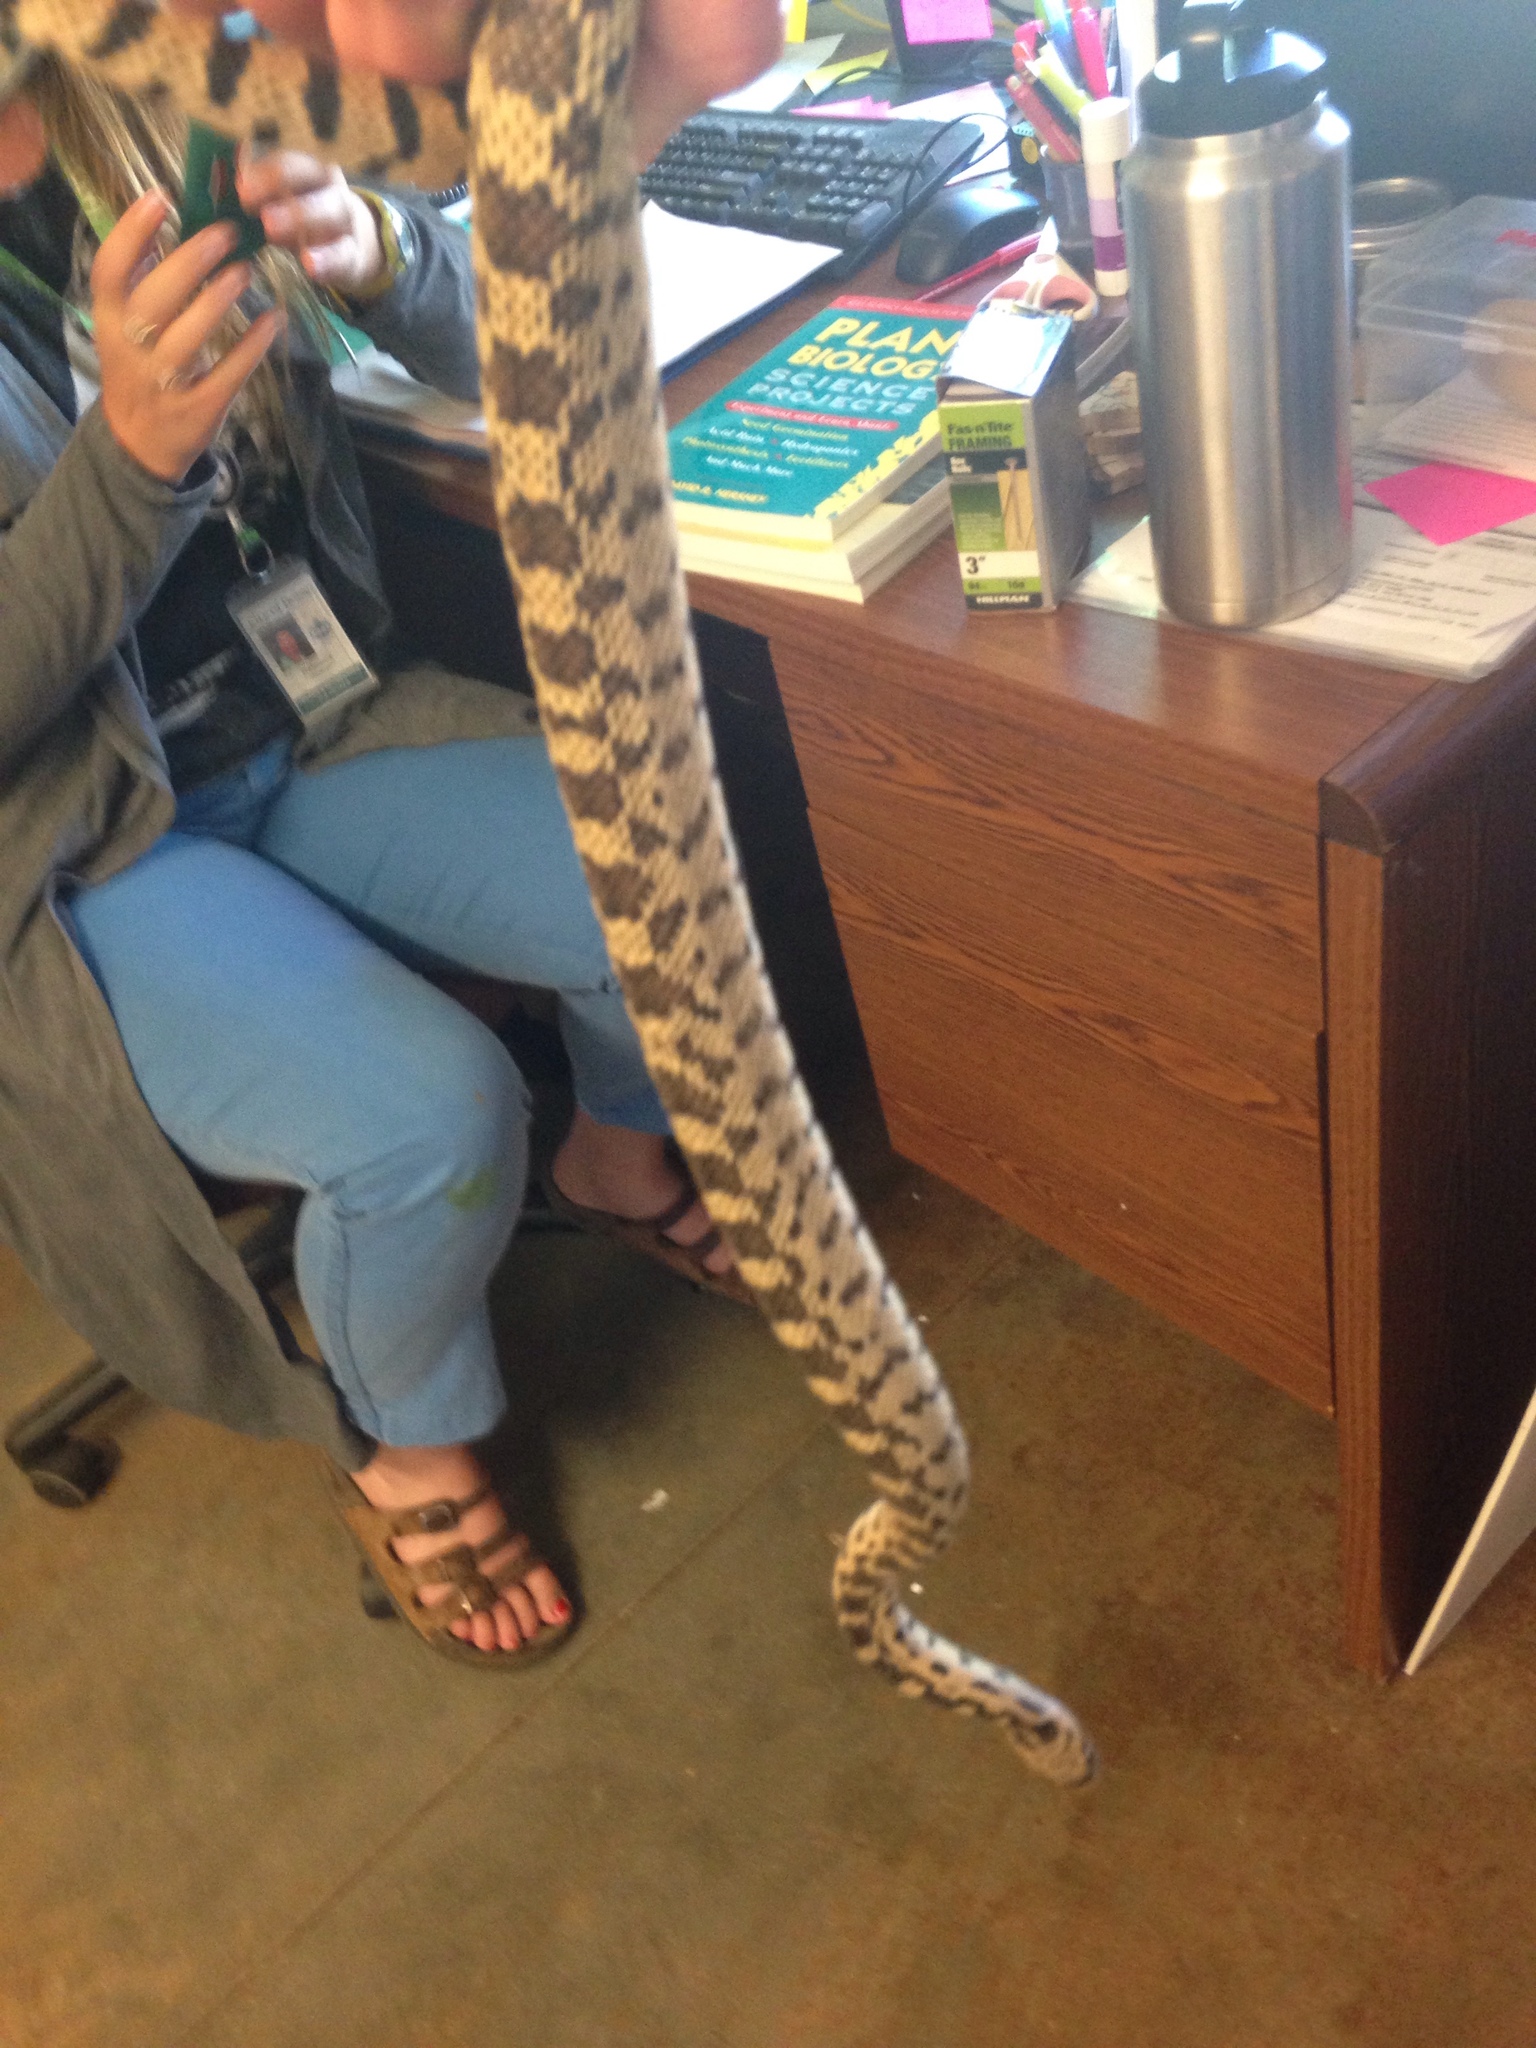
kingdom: Animalia
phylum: Chordata
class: Squamata
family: Colubridae
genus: Pituophis
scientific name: Pituophis catenifer
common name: Gopher snake
